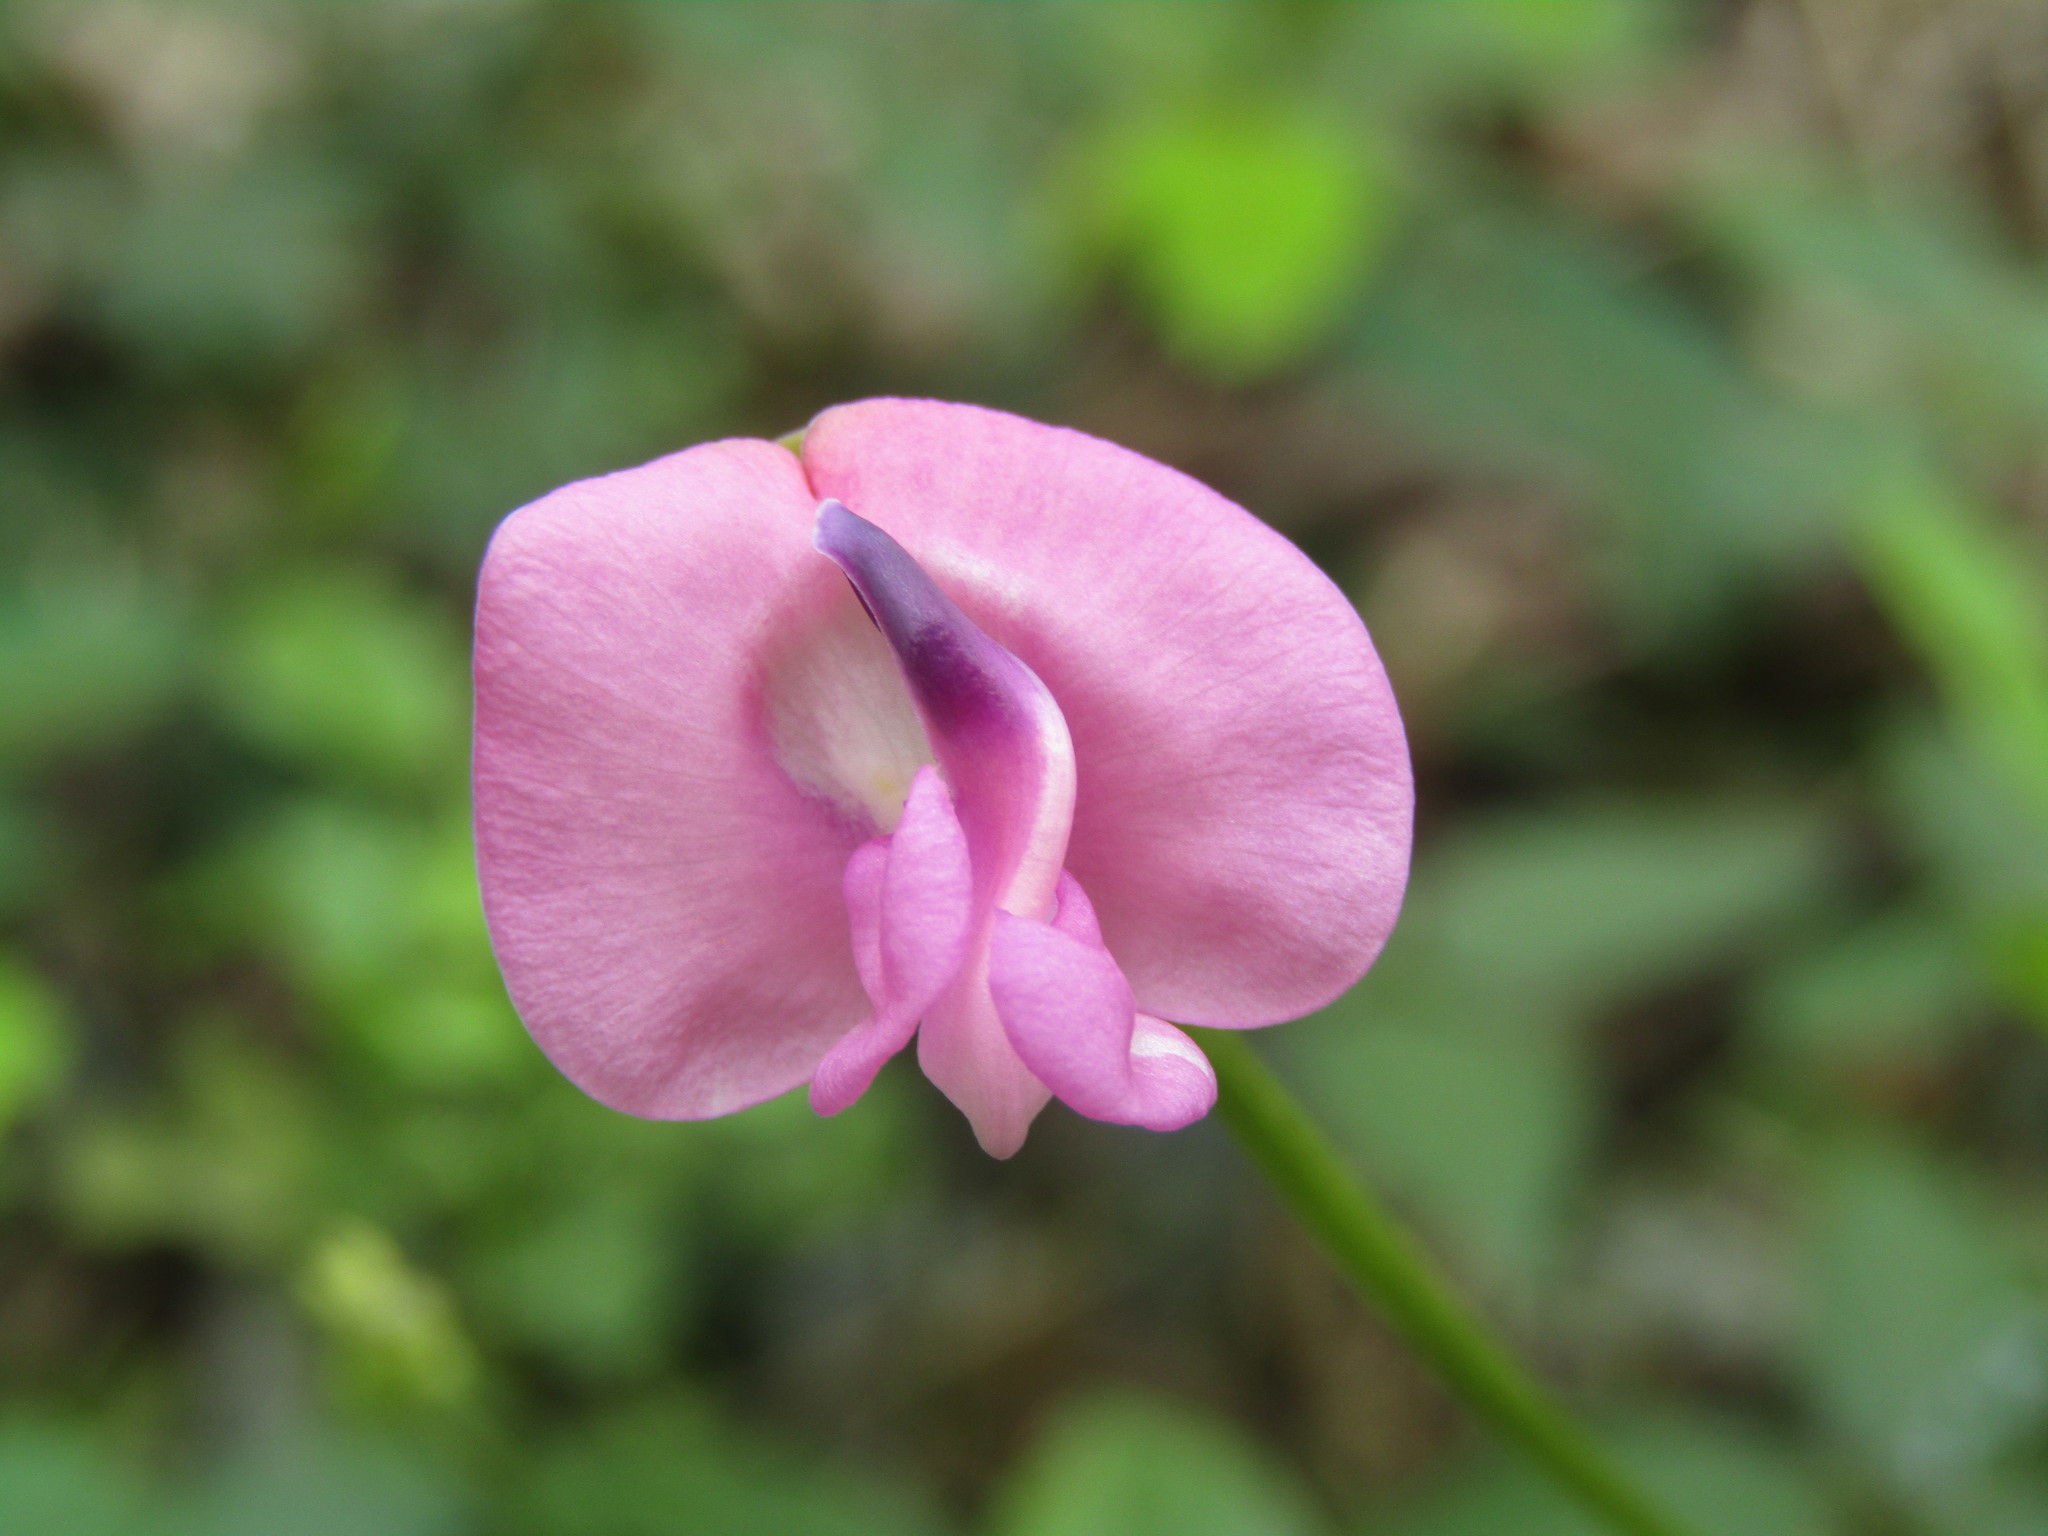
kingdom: Plantae
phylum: Tracheophyta
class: Magnoliopsida
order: Fabales
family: Fabaceae
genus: Strophostyles
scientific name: Strophostyles umbellata
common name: Perennial wild bean
